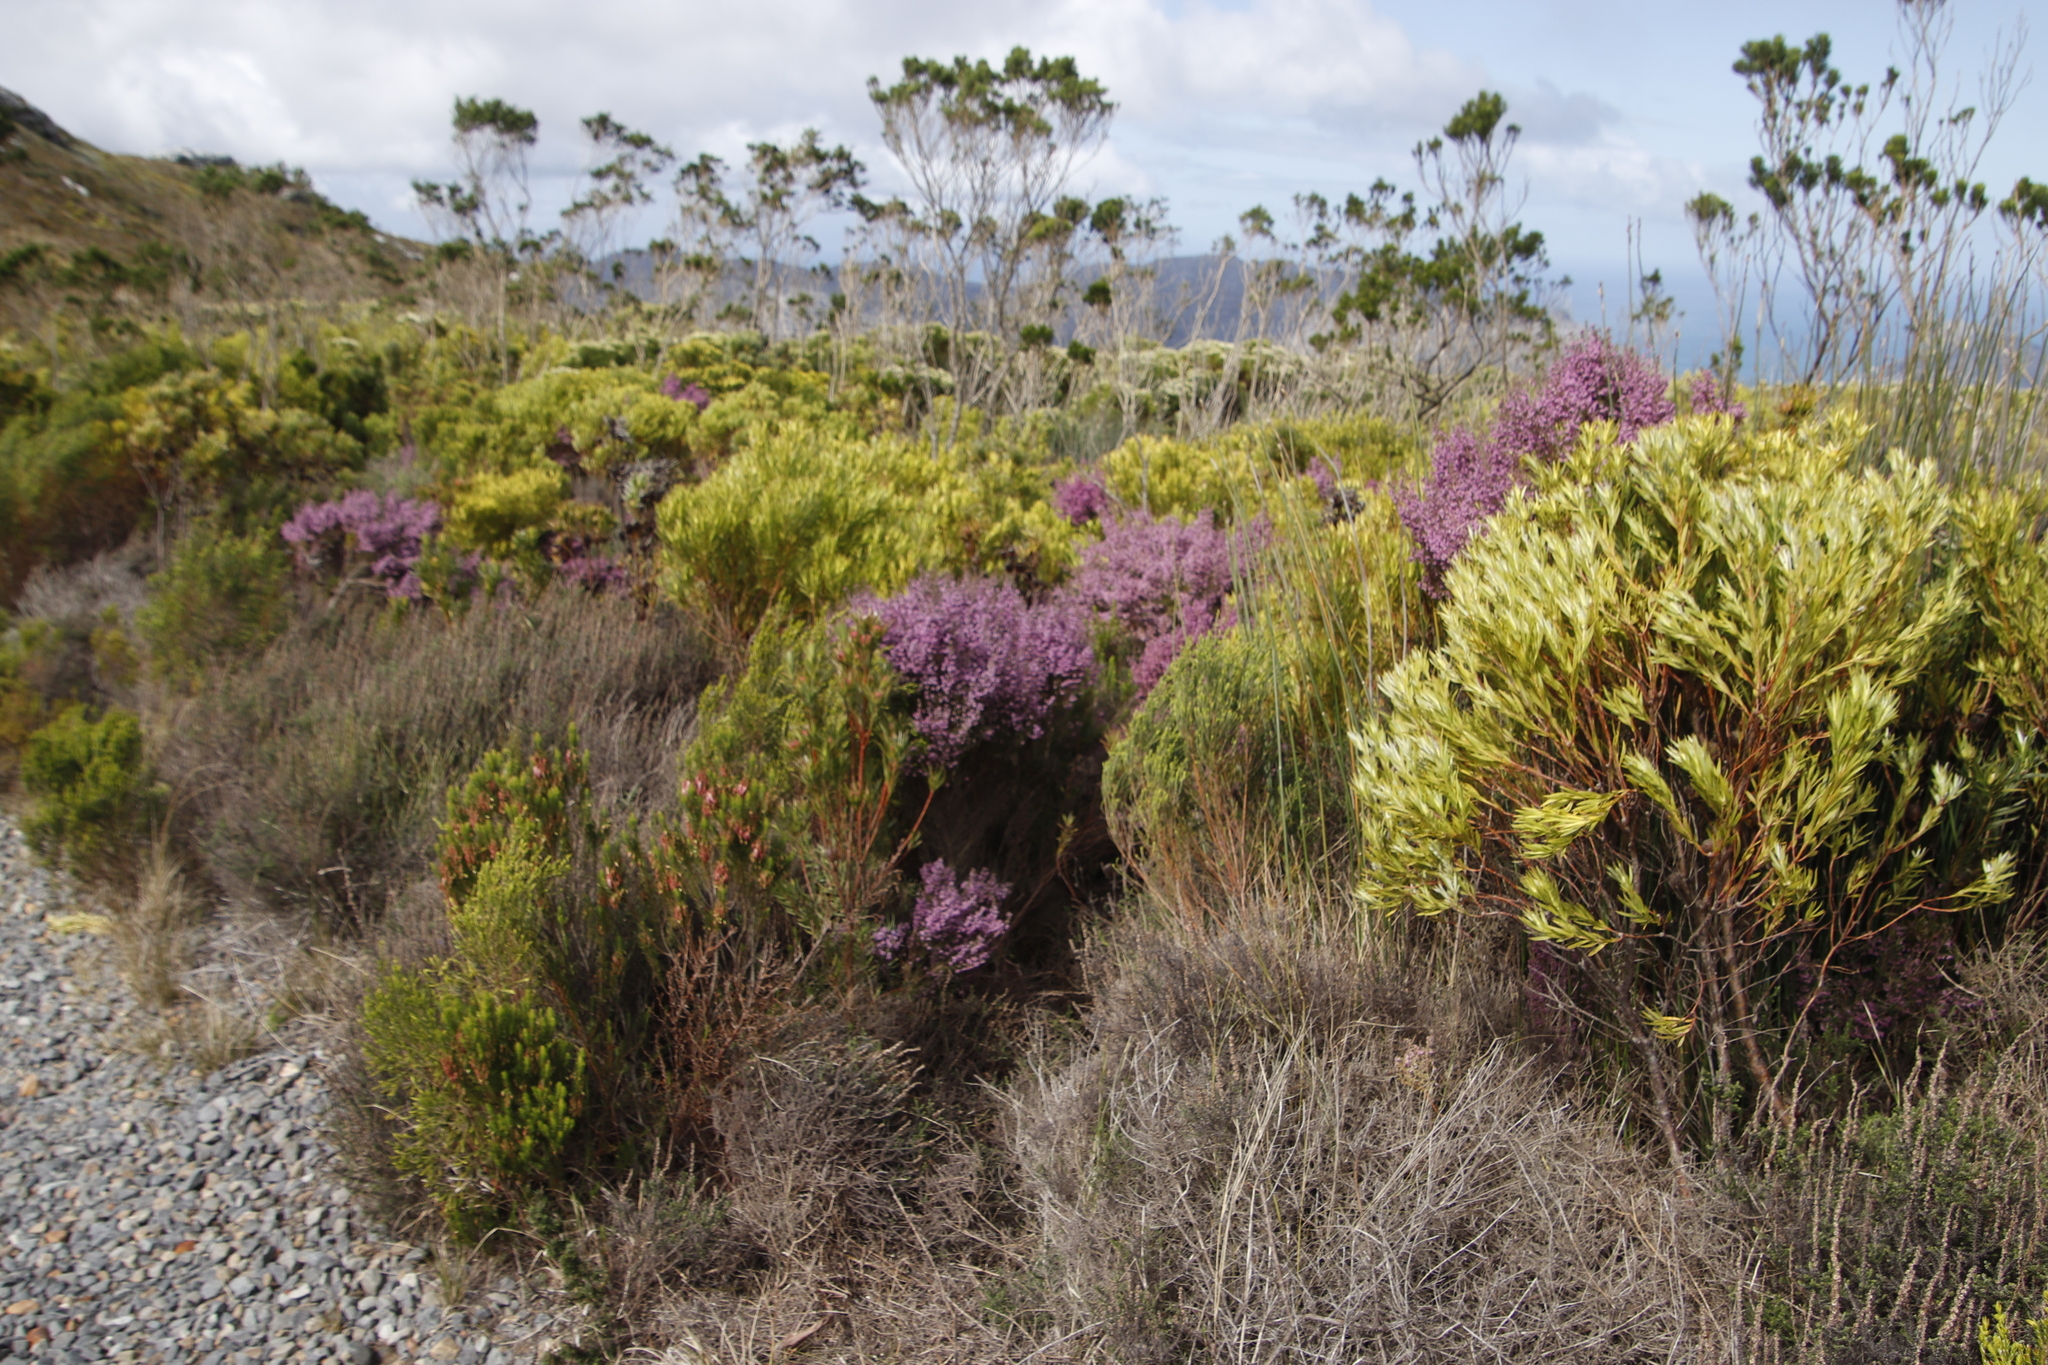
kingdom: Plantae
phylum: Tracheophyta
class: Magnoliopsida
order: Ericales
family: Ericaceae
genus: Erica
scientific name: Erica hirtiflora
